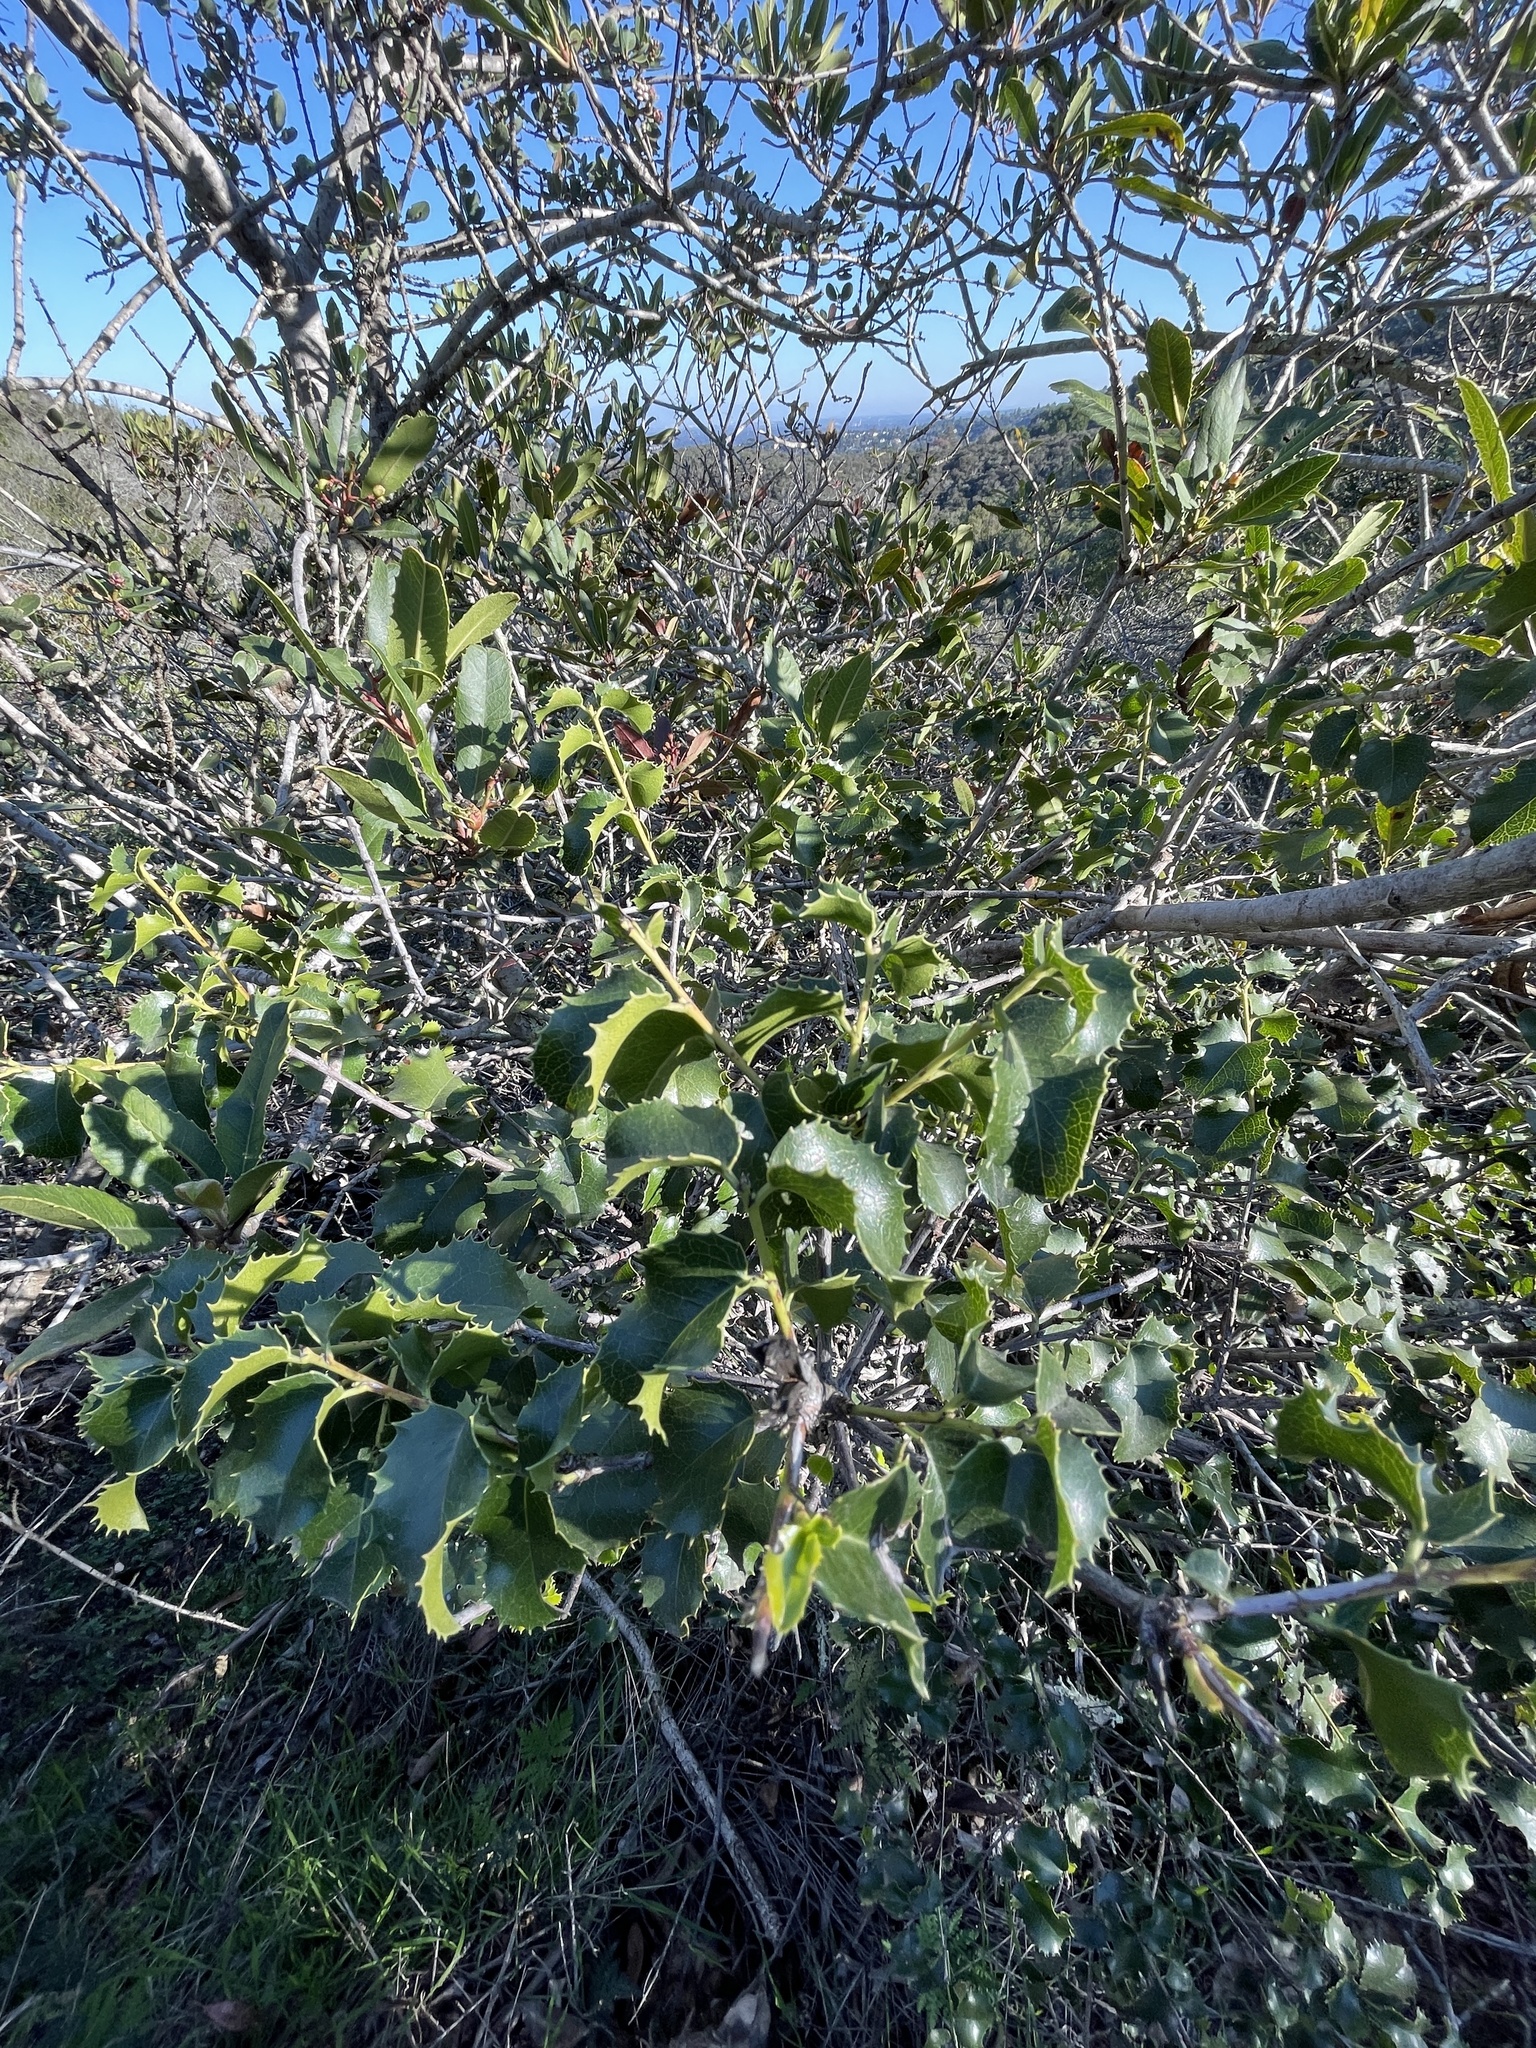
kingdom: Plantae
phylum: Tracheophyta
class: Magnoliopsida
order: Rosales
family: Rosaceae
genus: Prunus
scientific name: Prunus ilicifolia
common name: Hollyleaf cherry
